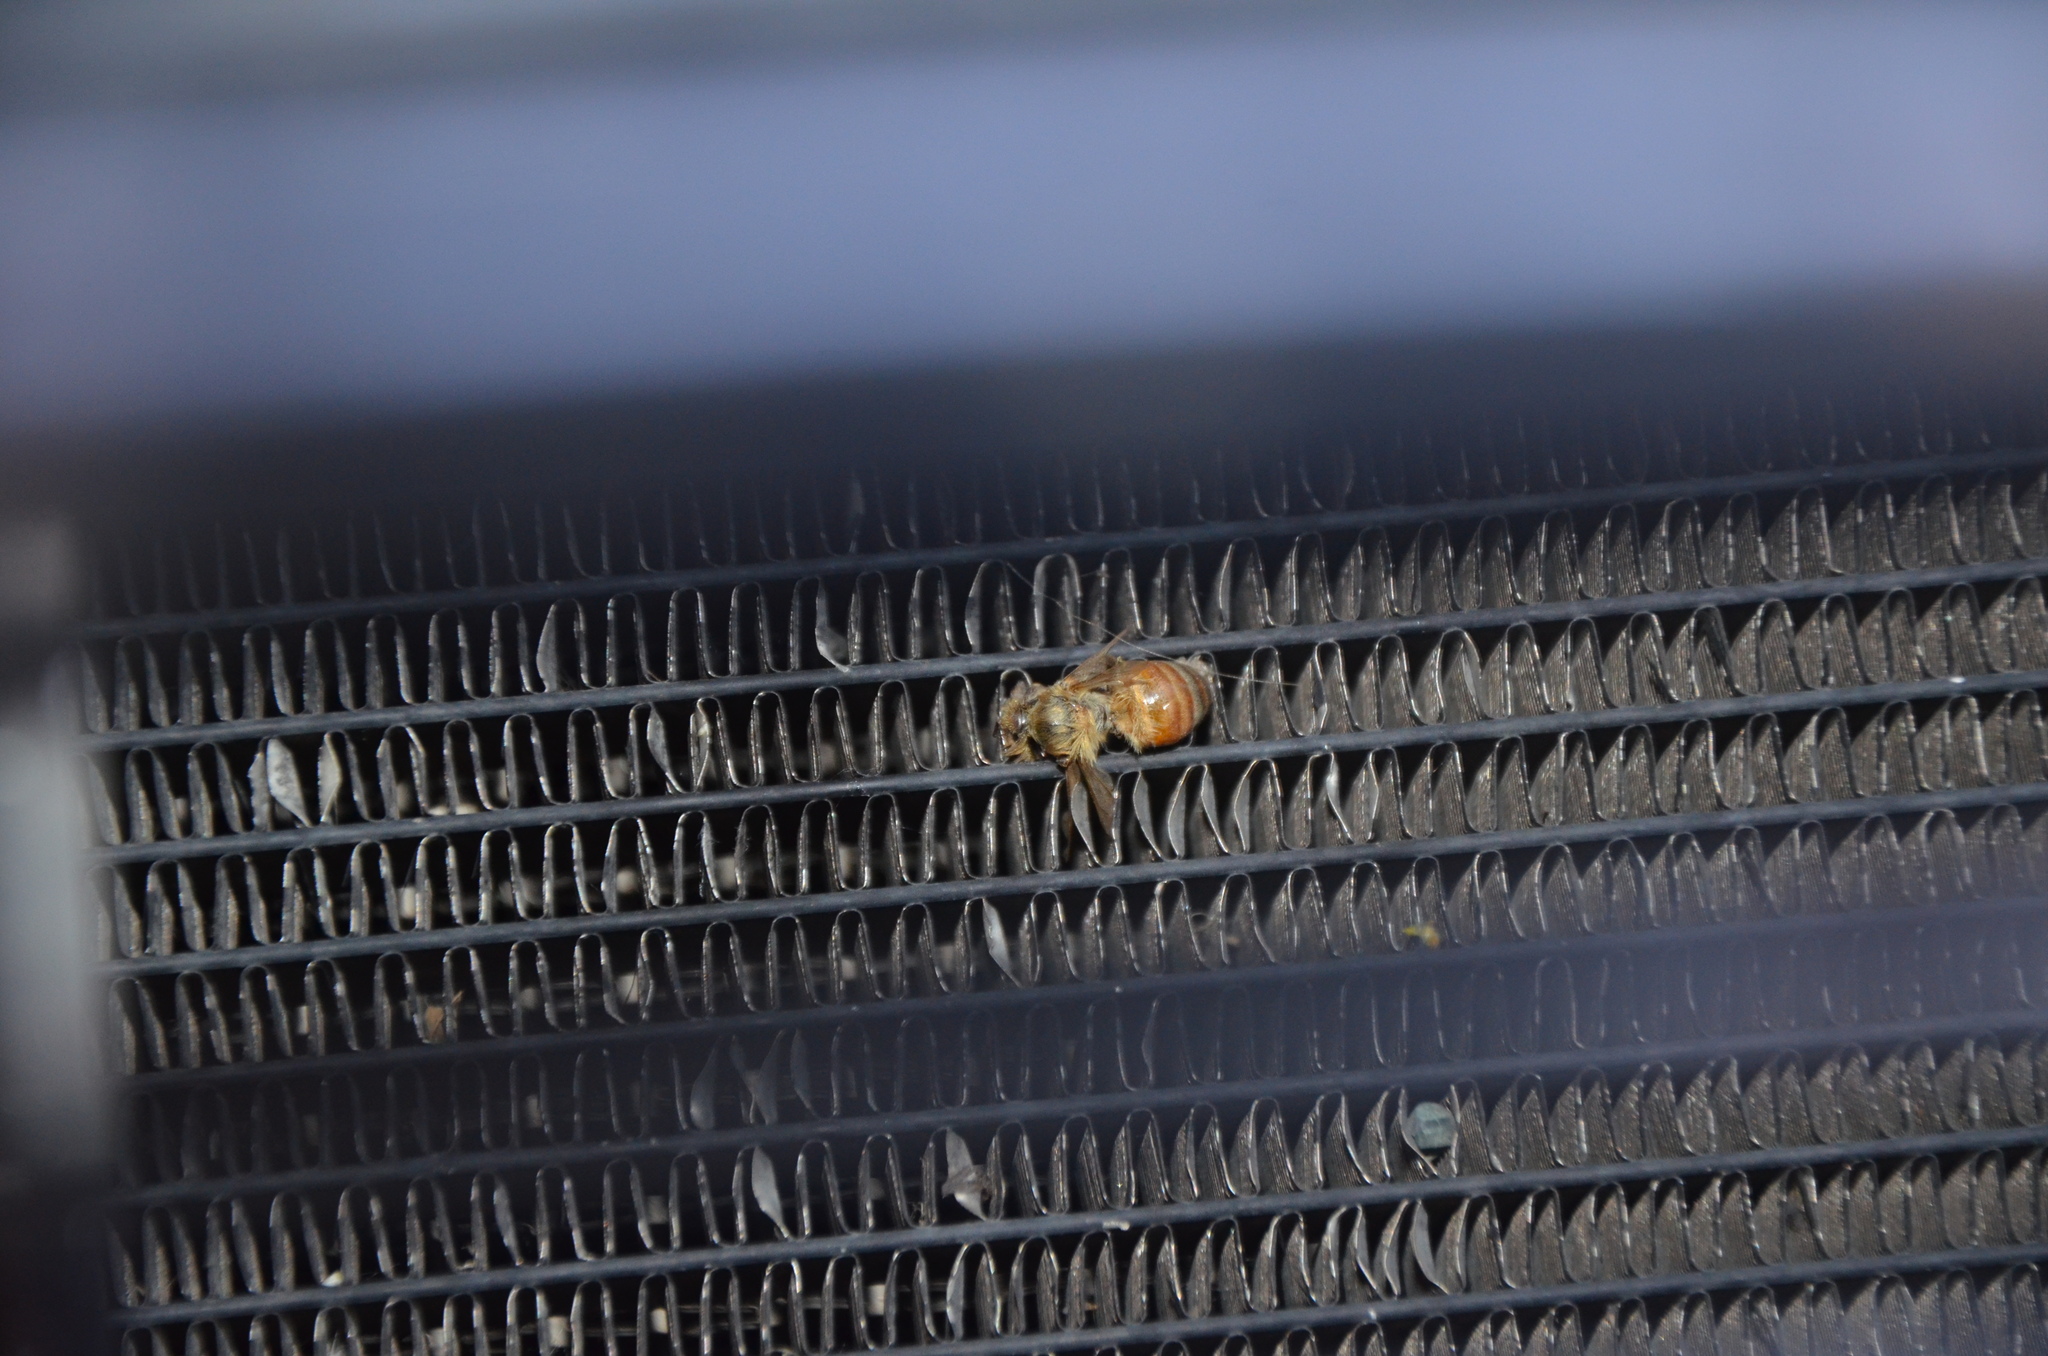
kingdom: Animalia
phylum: Arthropoda
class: Insecta
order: Hymenoptera
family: Apidae
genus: Apis
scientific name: Apis mellifera
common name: Honey bee
